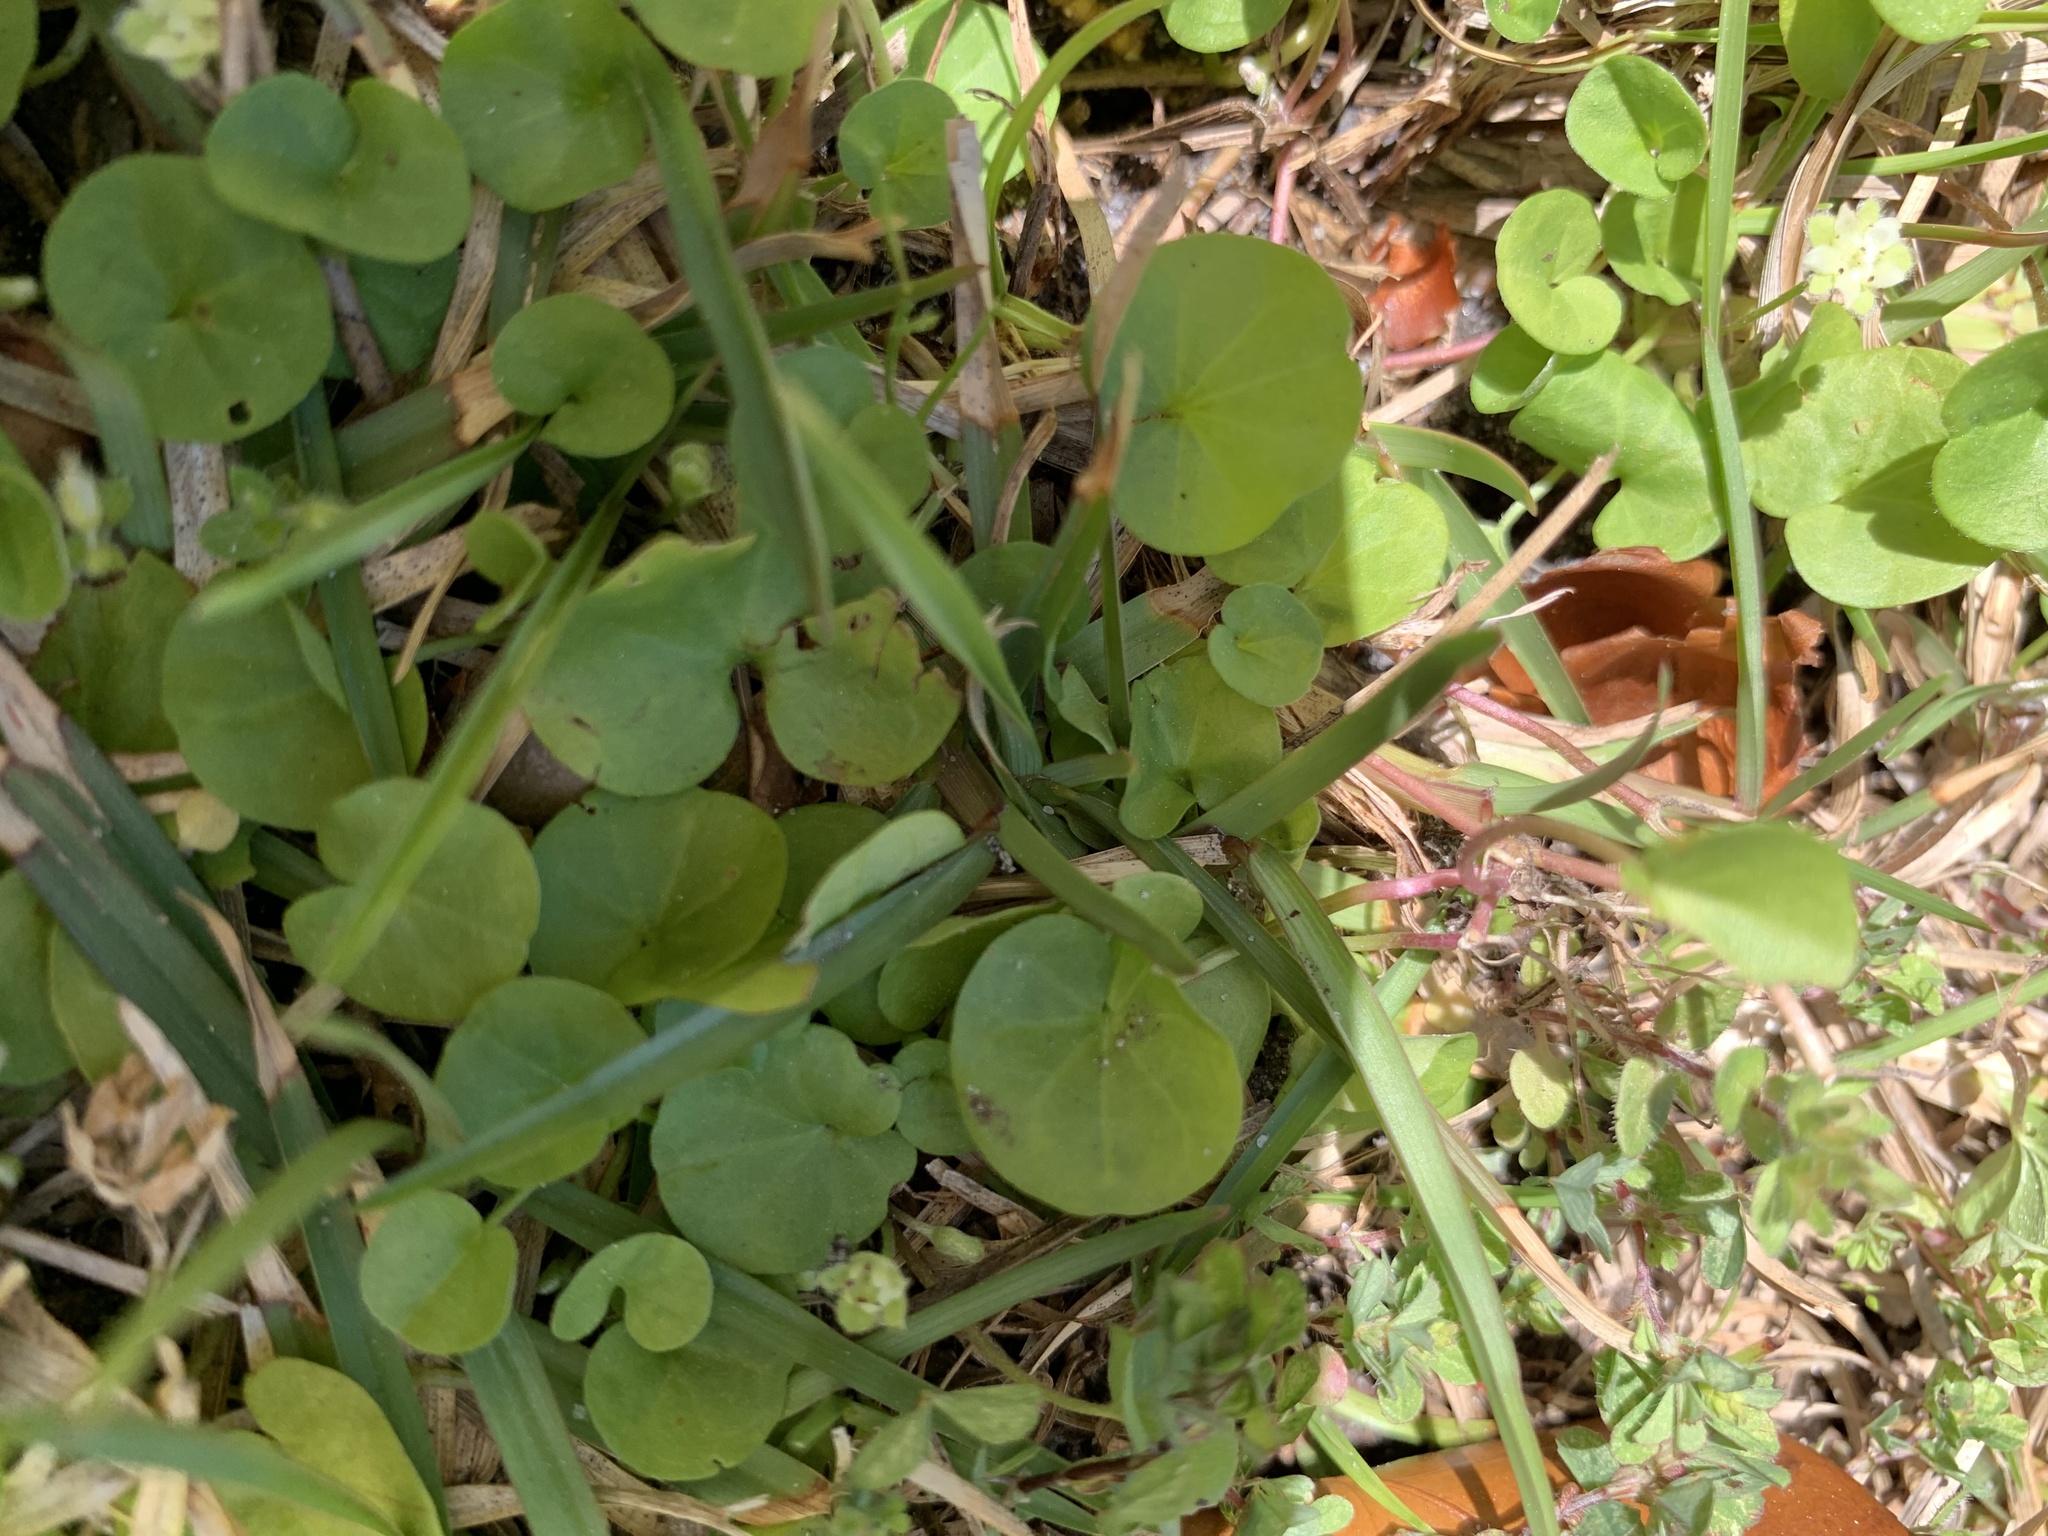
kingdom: Plantae
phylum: Tracheophyta
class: Magnoliopsida
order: Solanales
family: Convolvulaceae
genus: Dichondra
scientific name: Dichondra carolinensis
